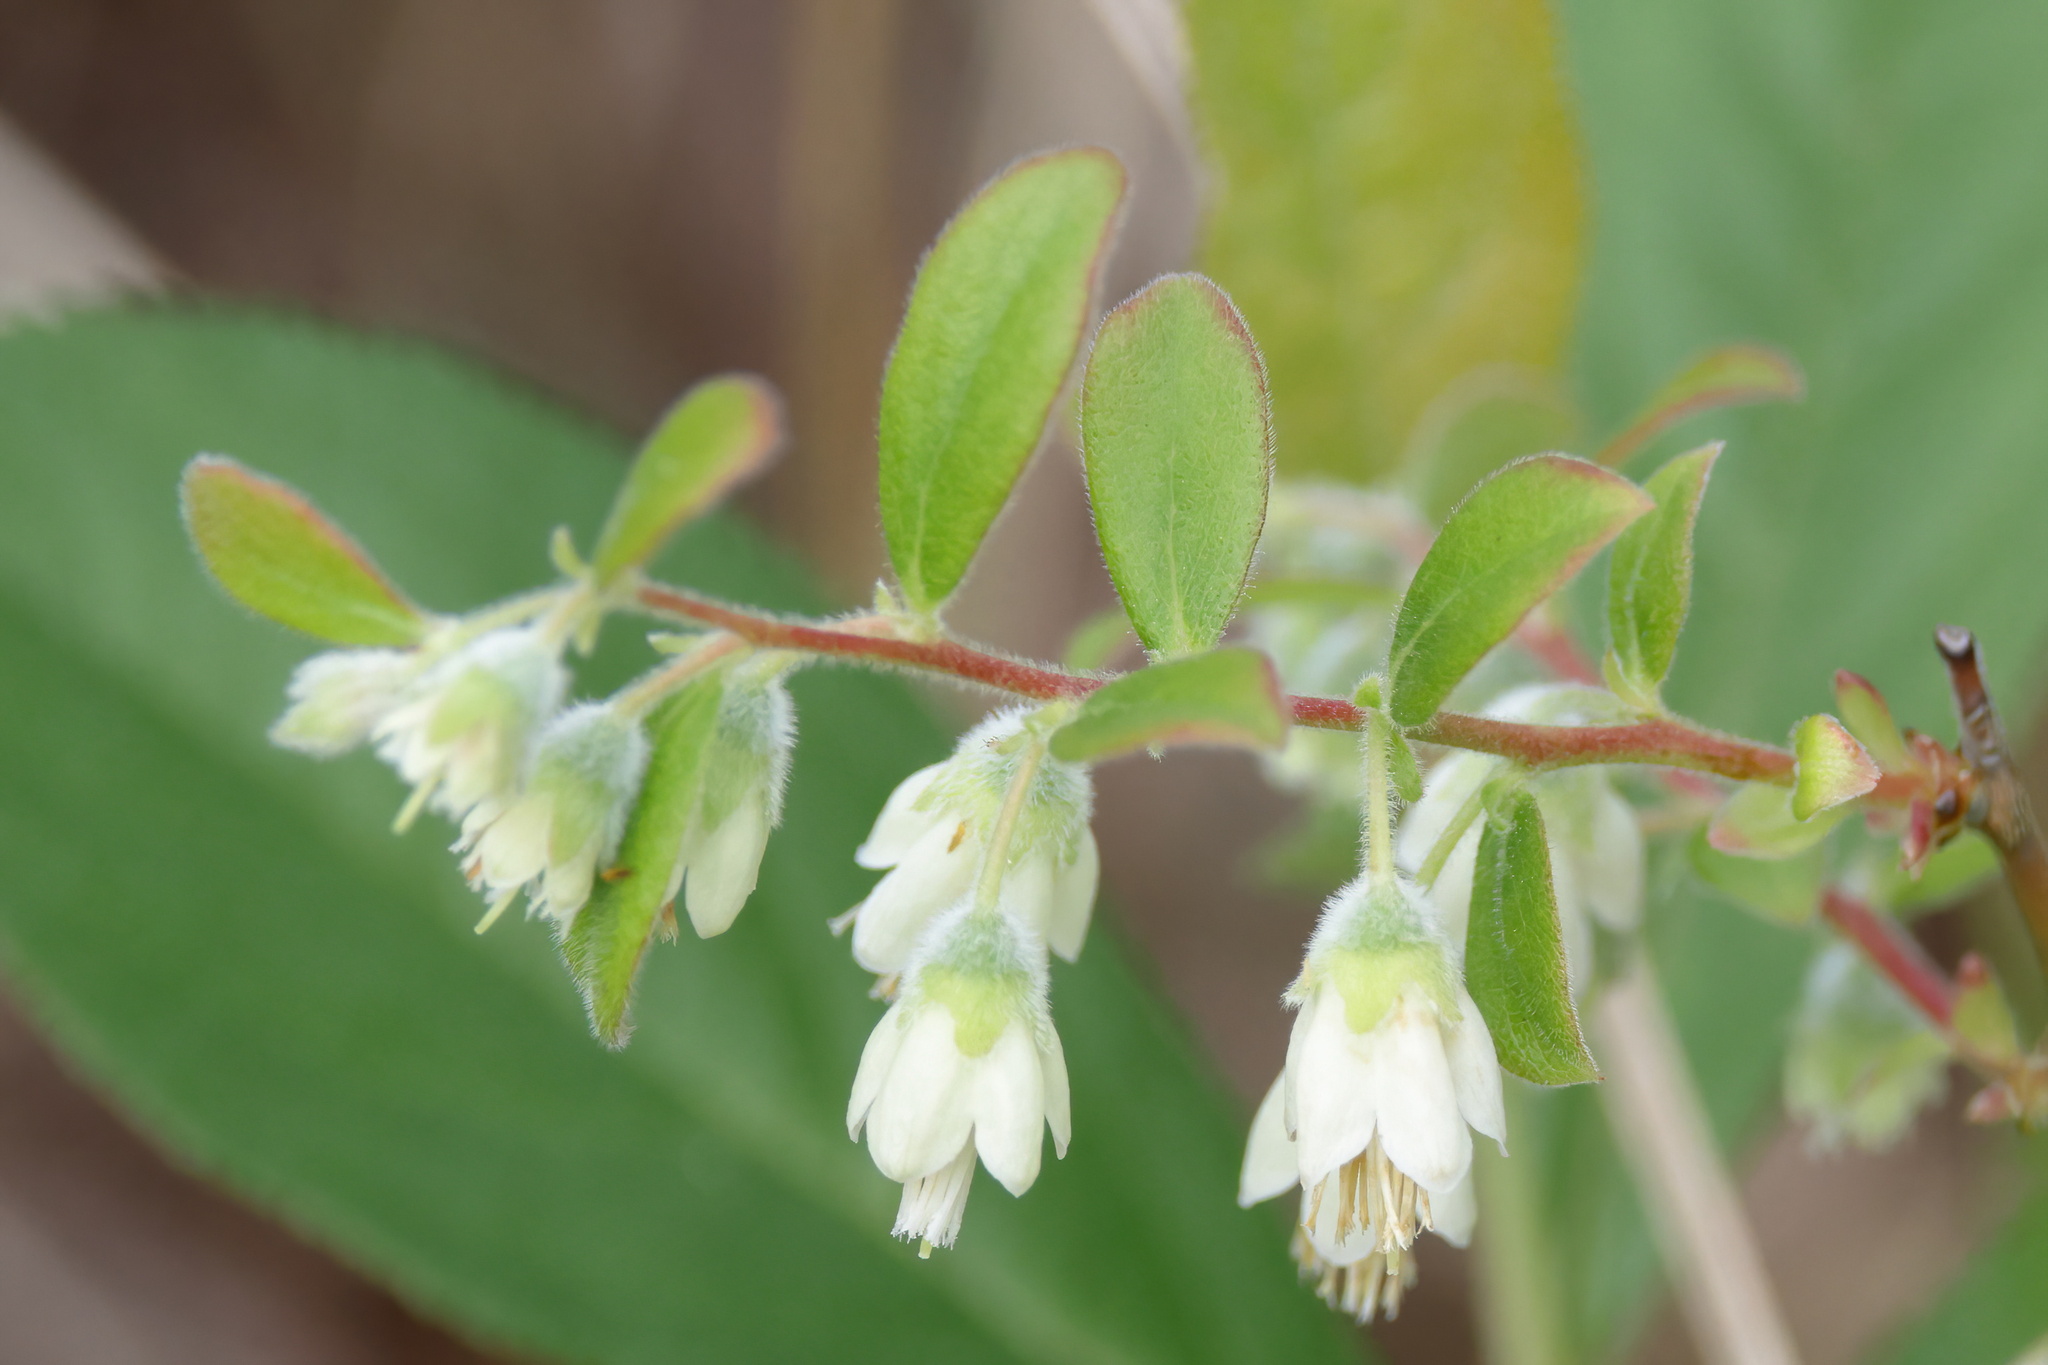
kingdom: Plantae
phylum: Tracheophyta
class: Magnoliopsida
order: Ericales
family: Ericaceae
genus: Vaccinium
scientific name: Vaccinium stamineum
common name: Deerberry
